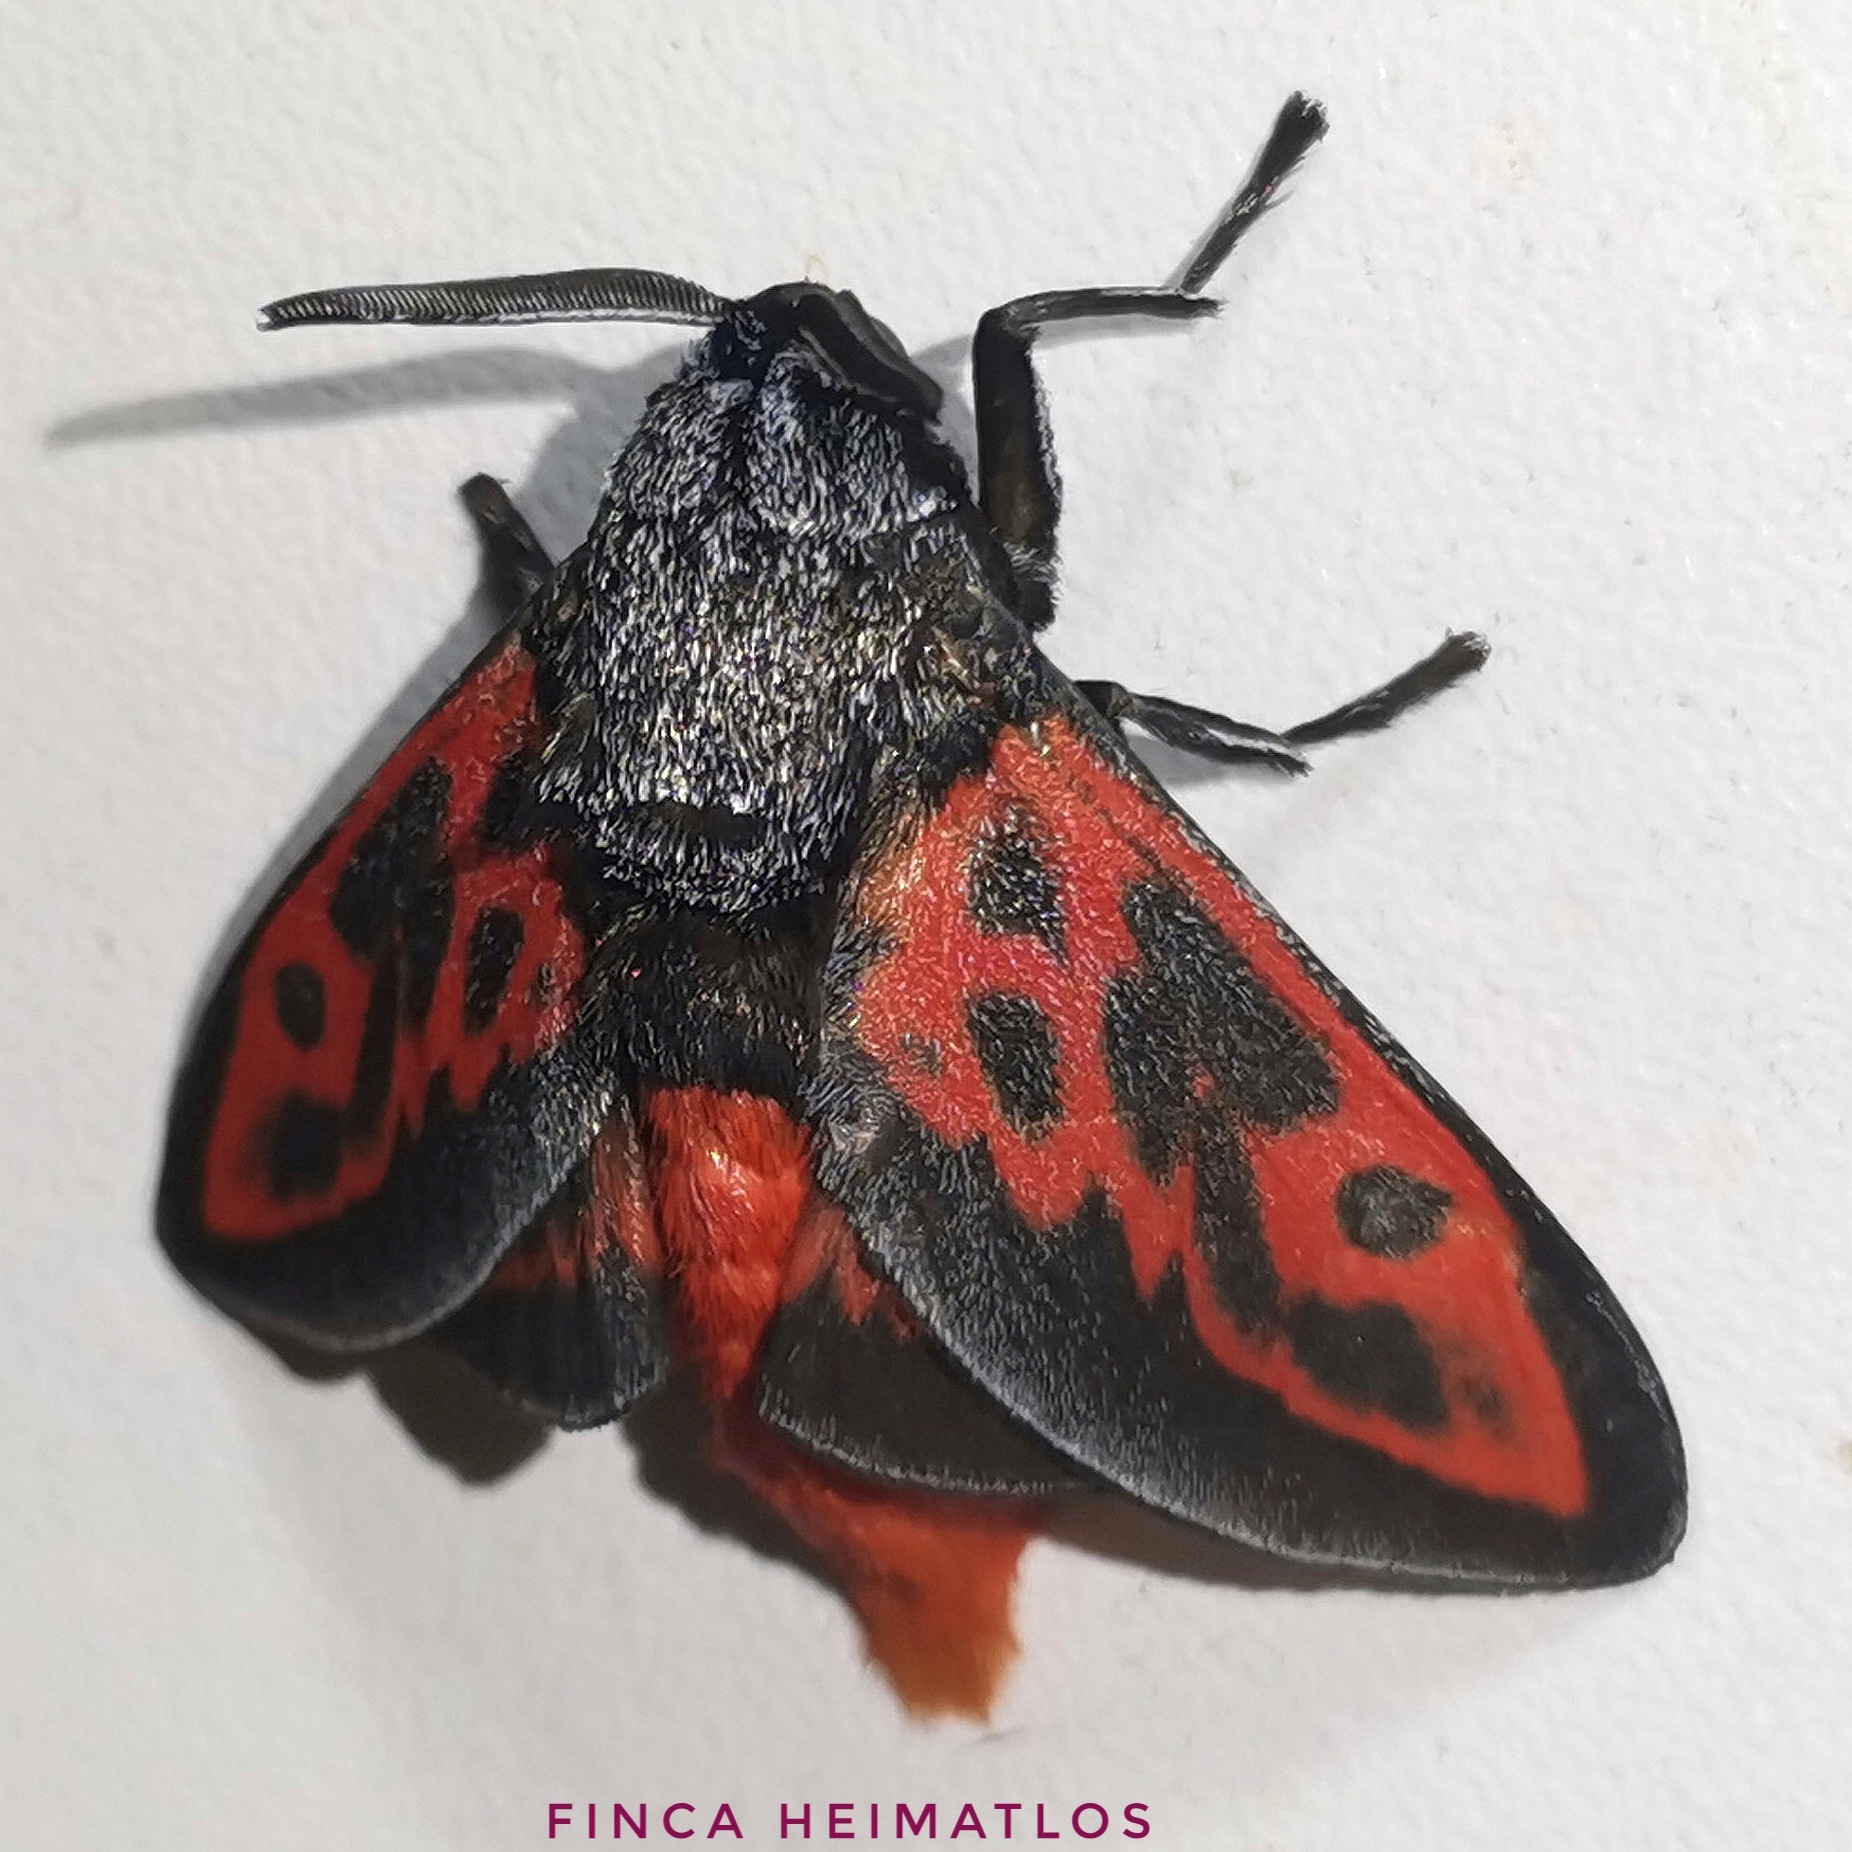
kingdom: Animalia
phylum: Arthropoda
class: Insecta
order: Lepidoptera
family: Megalopygidae
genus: Langucys
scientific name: Langucys nigrorufus
